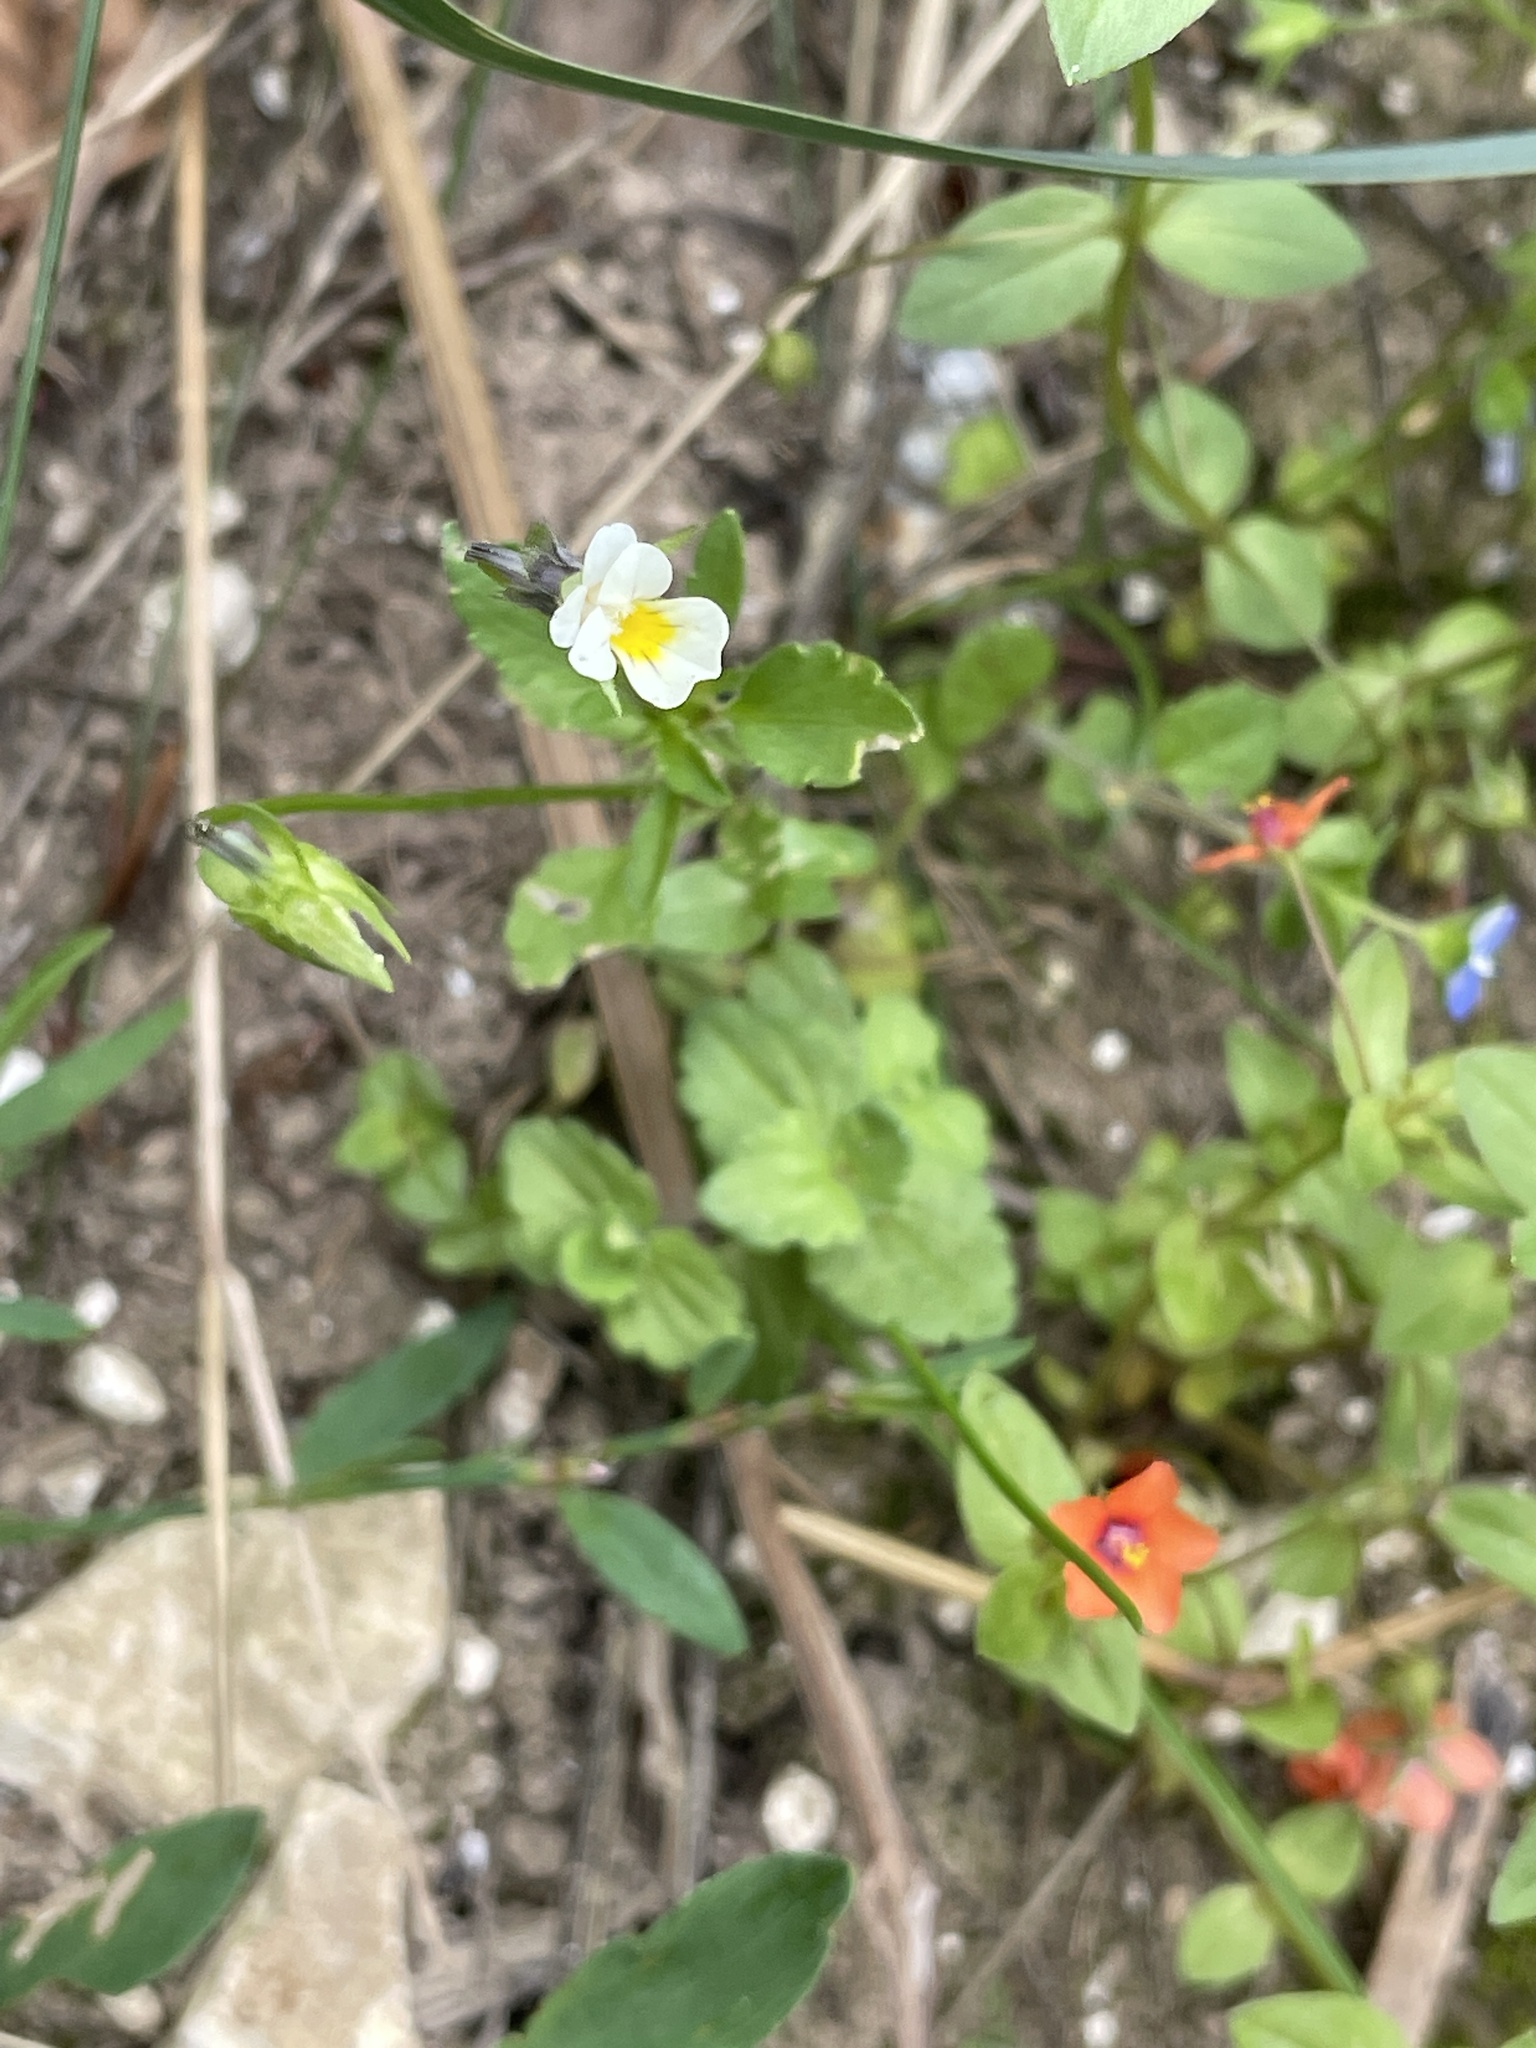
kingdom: Plantae
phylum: Tracheophyta
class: Magnoliopsida
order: Malpighiales
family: Violaceae
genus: Viola
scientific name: Viola arvensis
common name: Field pansy
